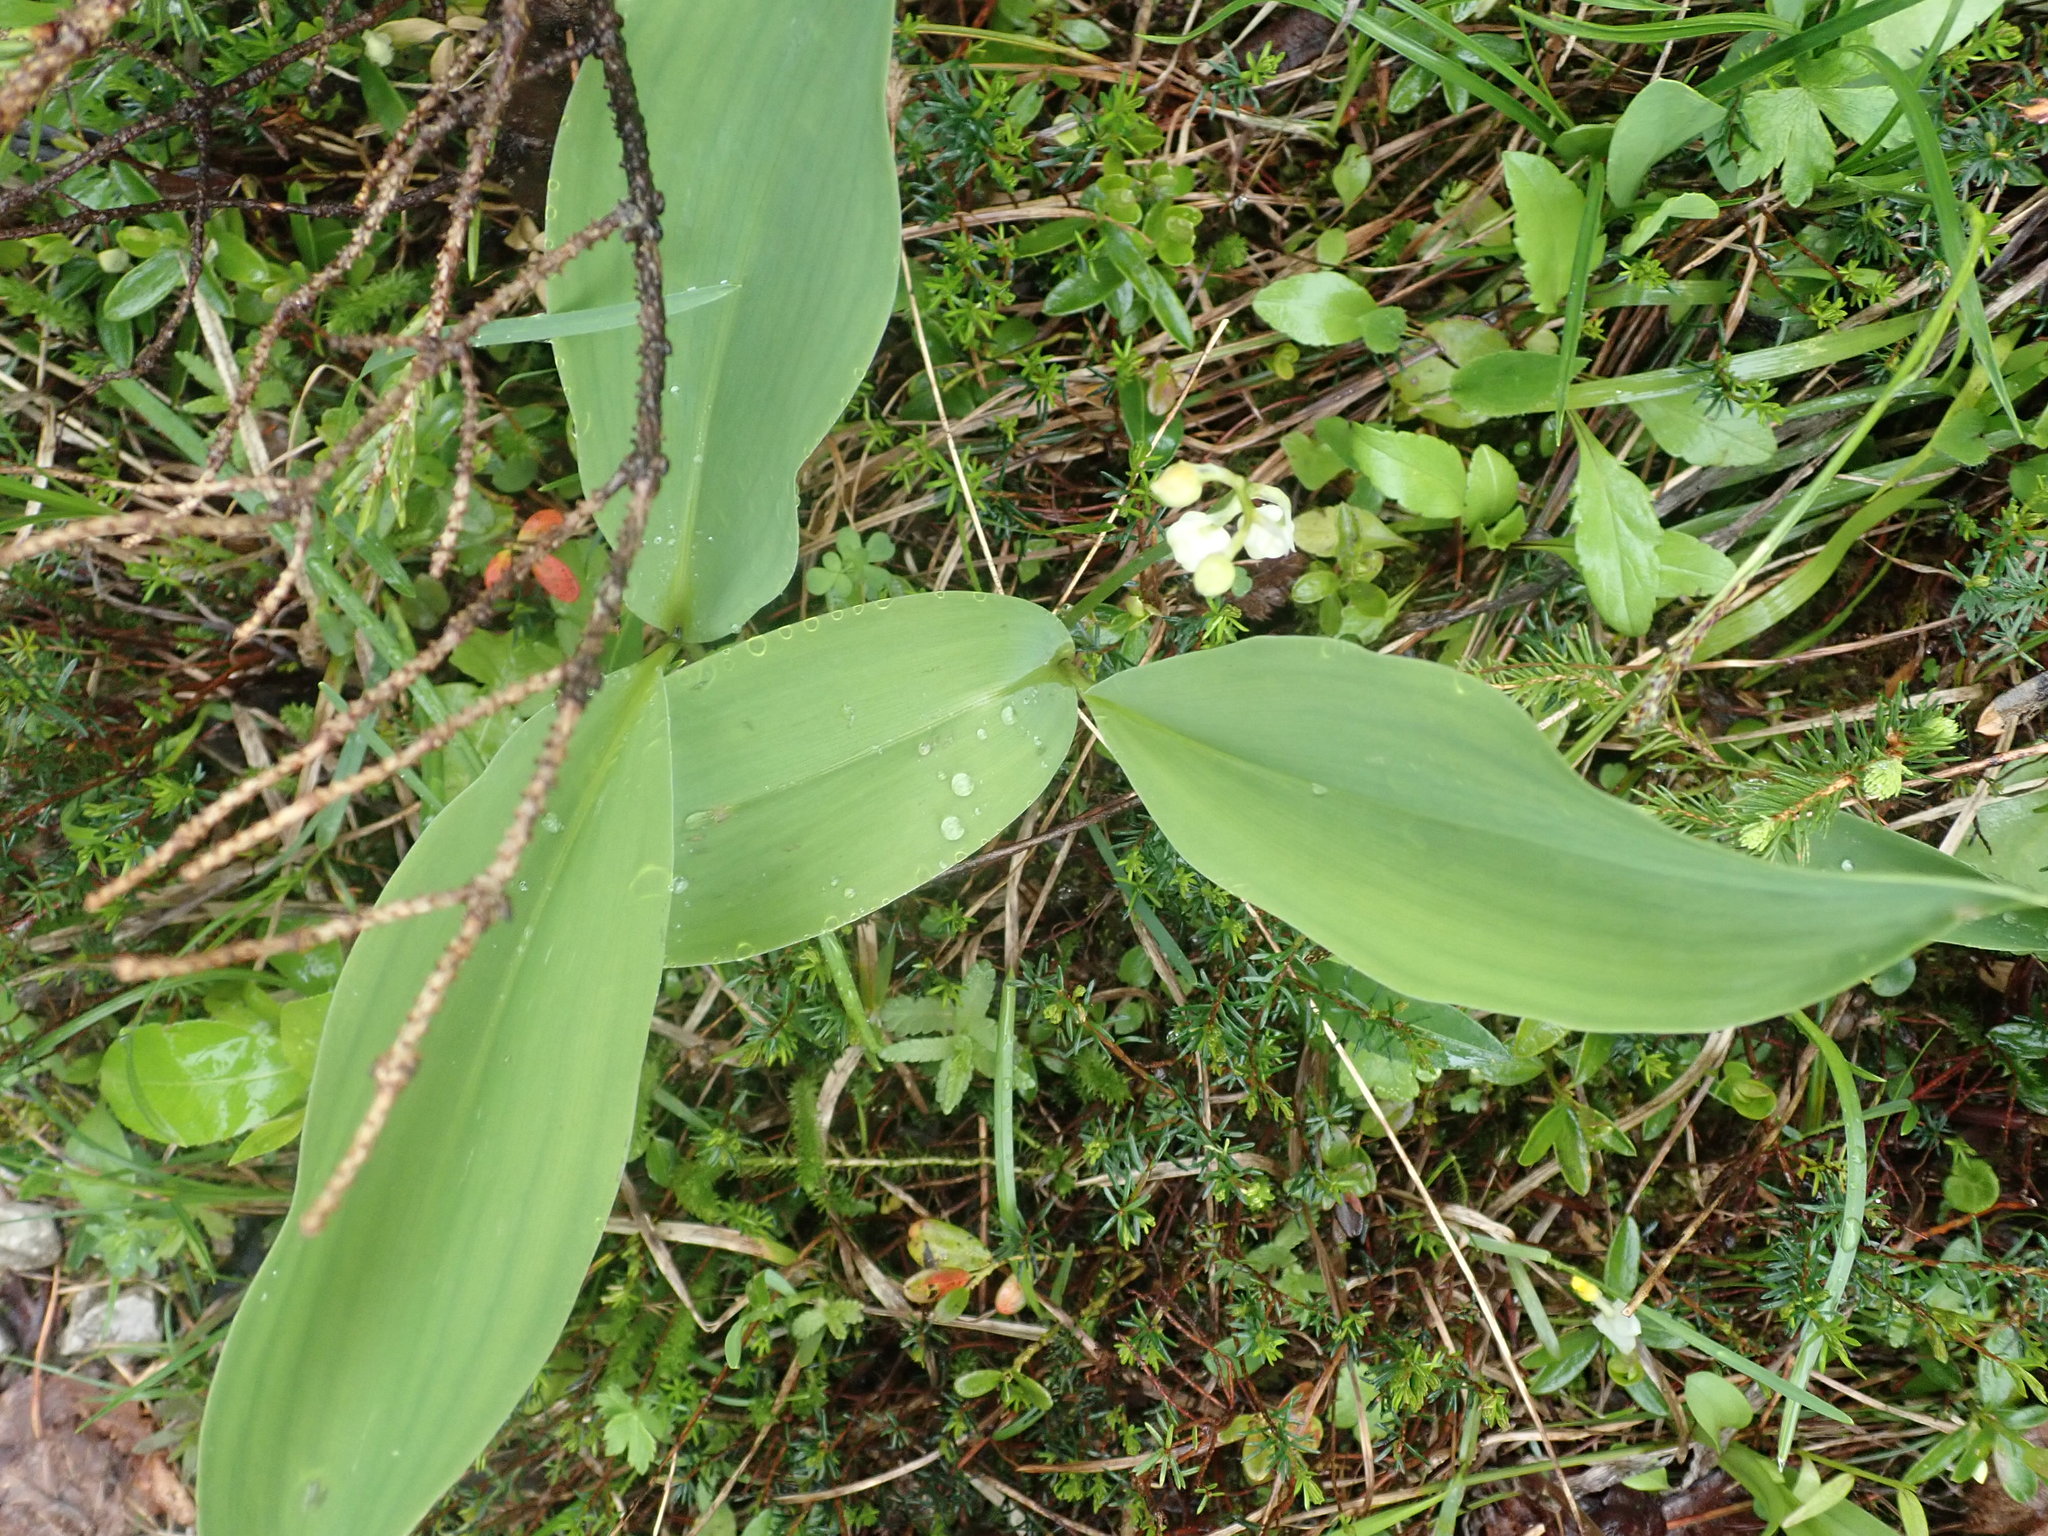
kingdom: Plantae
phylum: Tracheophyta
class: Liliopsida
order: Asparagales
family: Asparagaceae
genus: Convallaria
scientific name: Convallaria majalis
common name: Lily-of-the-valley
